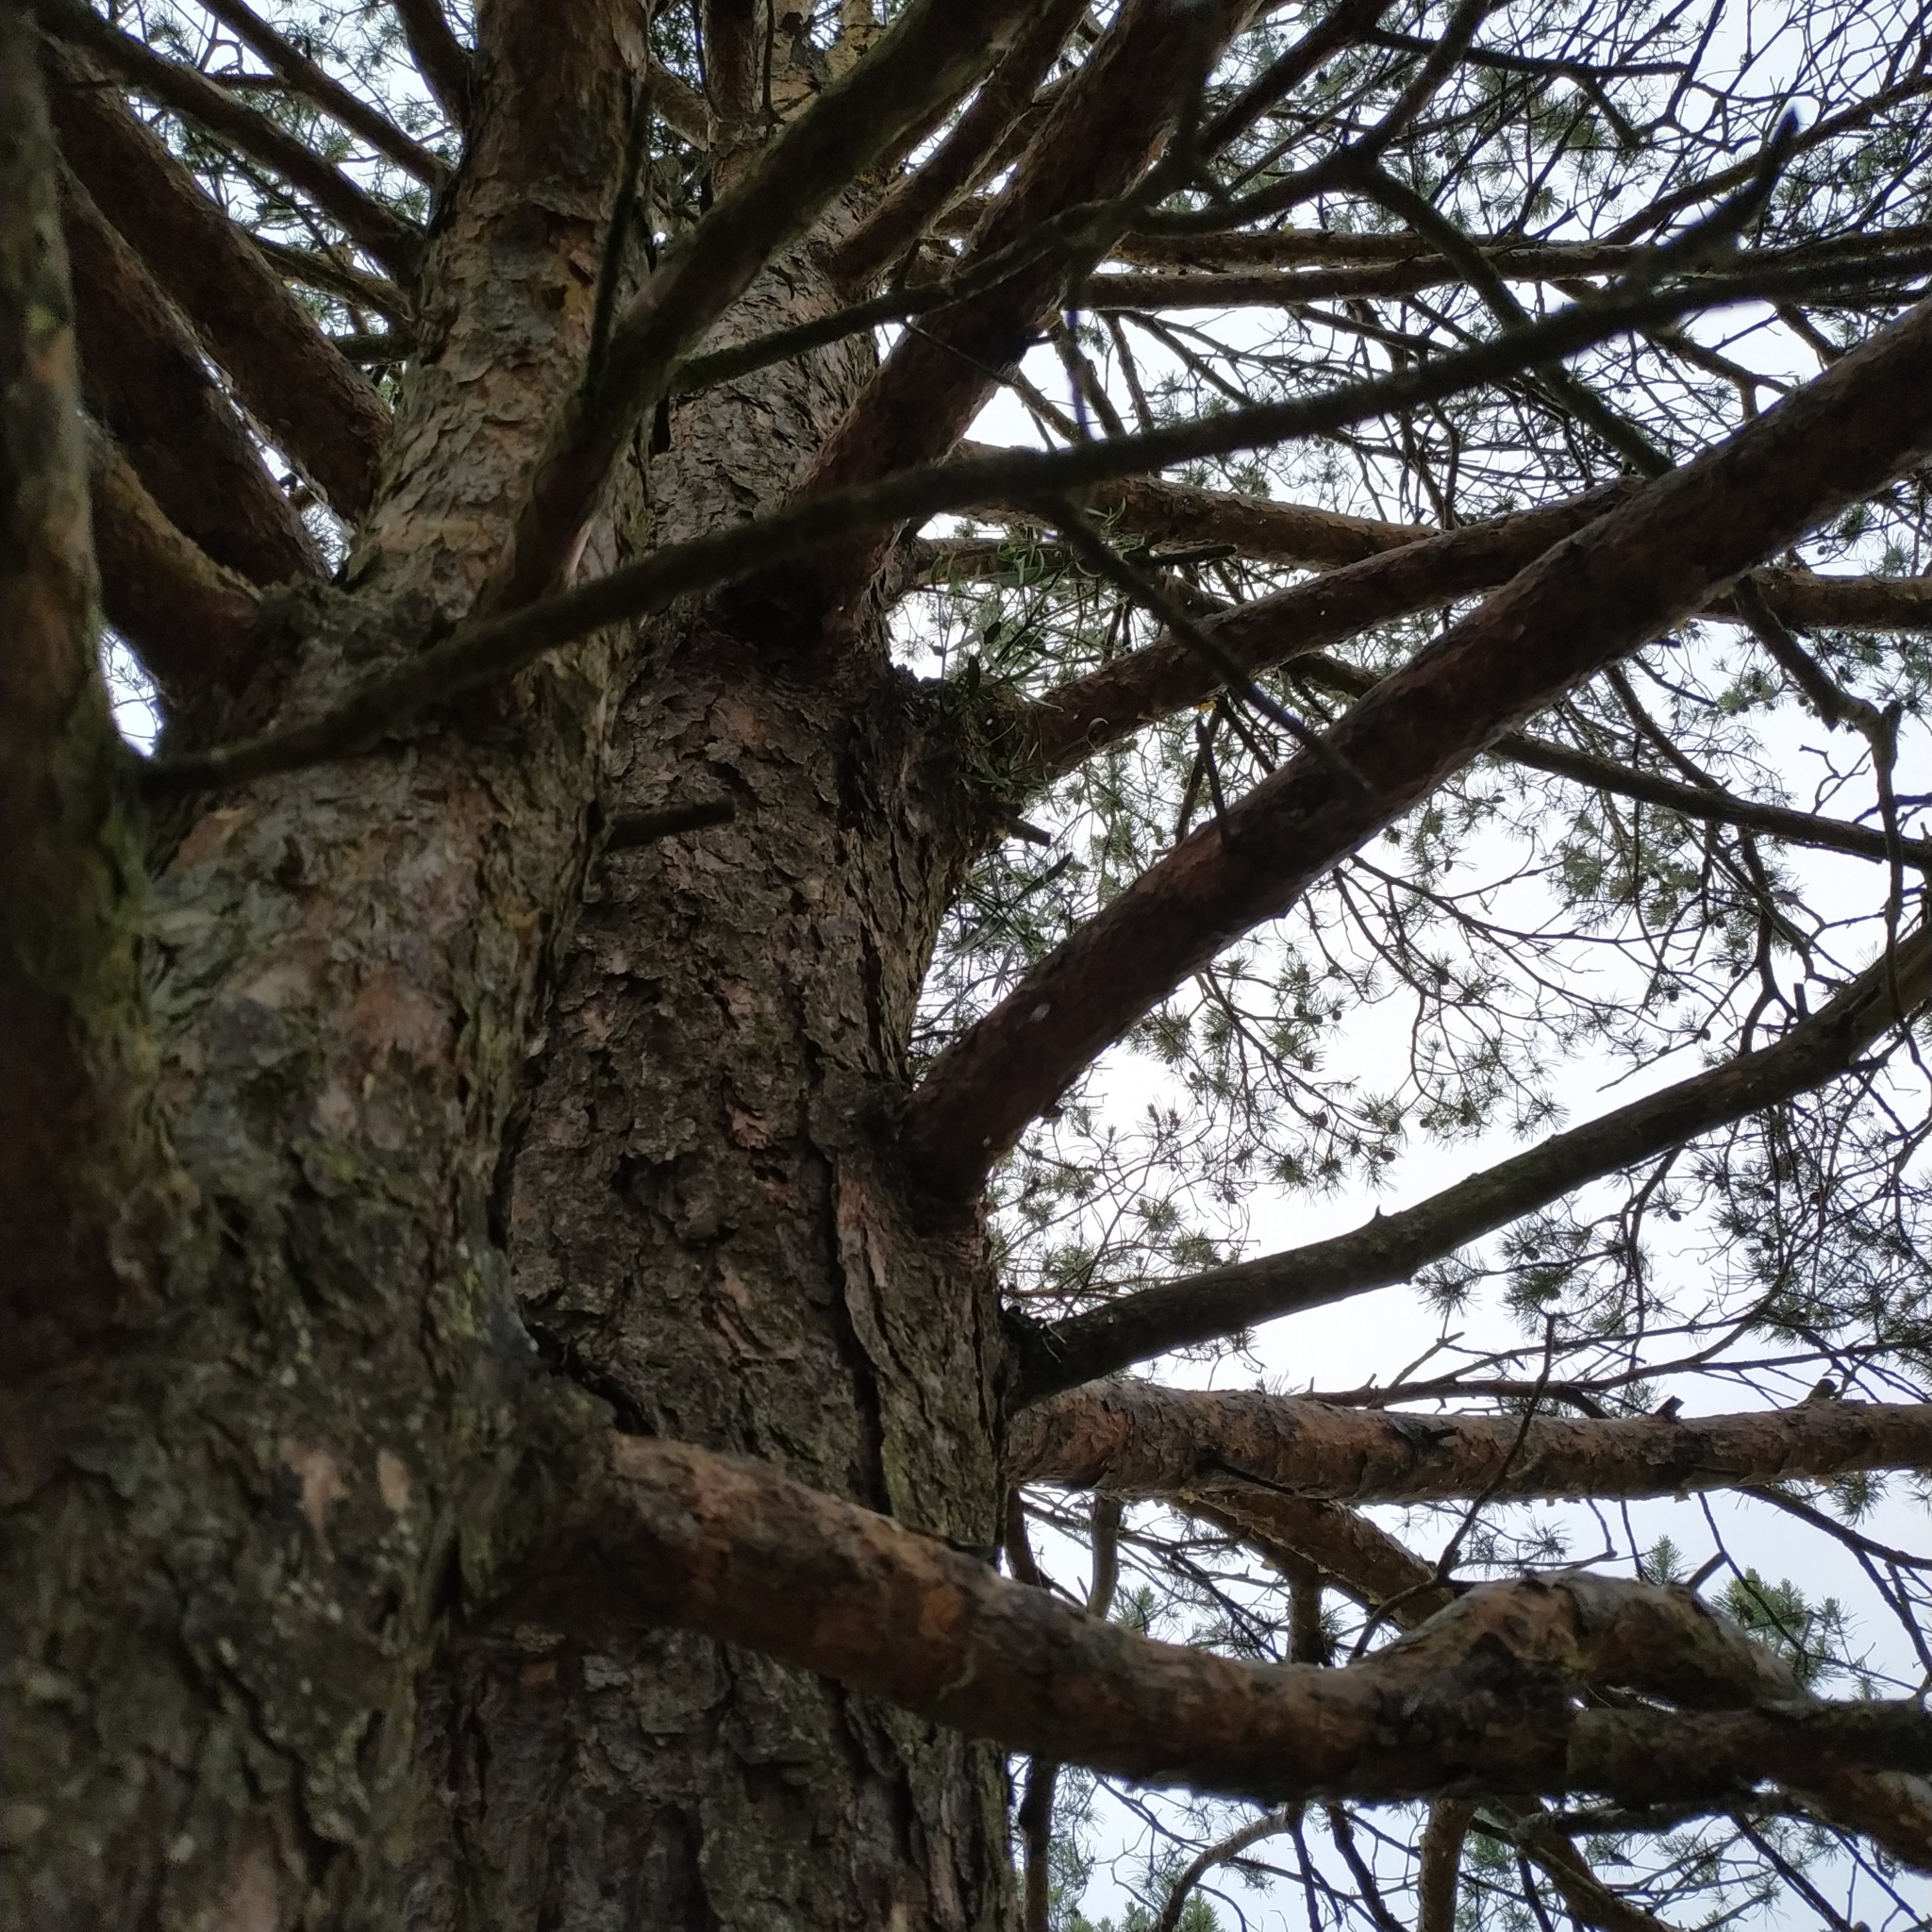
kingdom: Plantae
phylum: Tracheophyta
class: Magnoliopsida
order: Santalales
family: Viscaceae
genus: Viscum
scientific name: Viscum laxum
